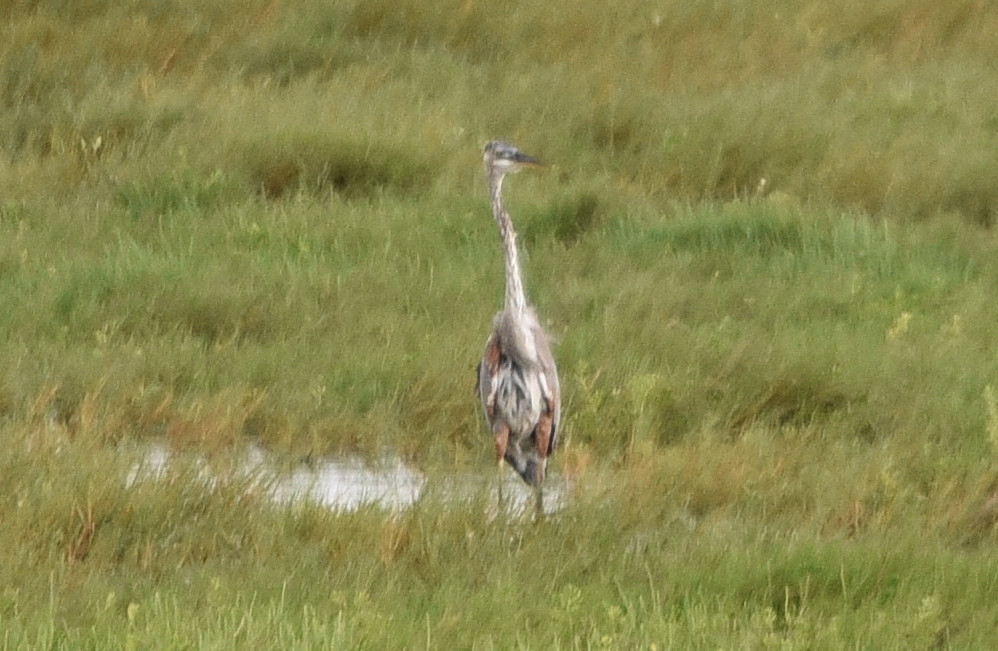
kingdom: Animalia
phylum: Chordata
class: Aves
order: Pelecaniformes
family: Ardeidae
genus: Ardea
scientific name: Ardea herodias
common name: Great blue heron
